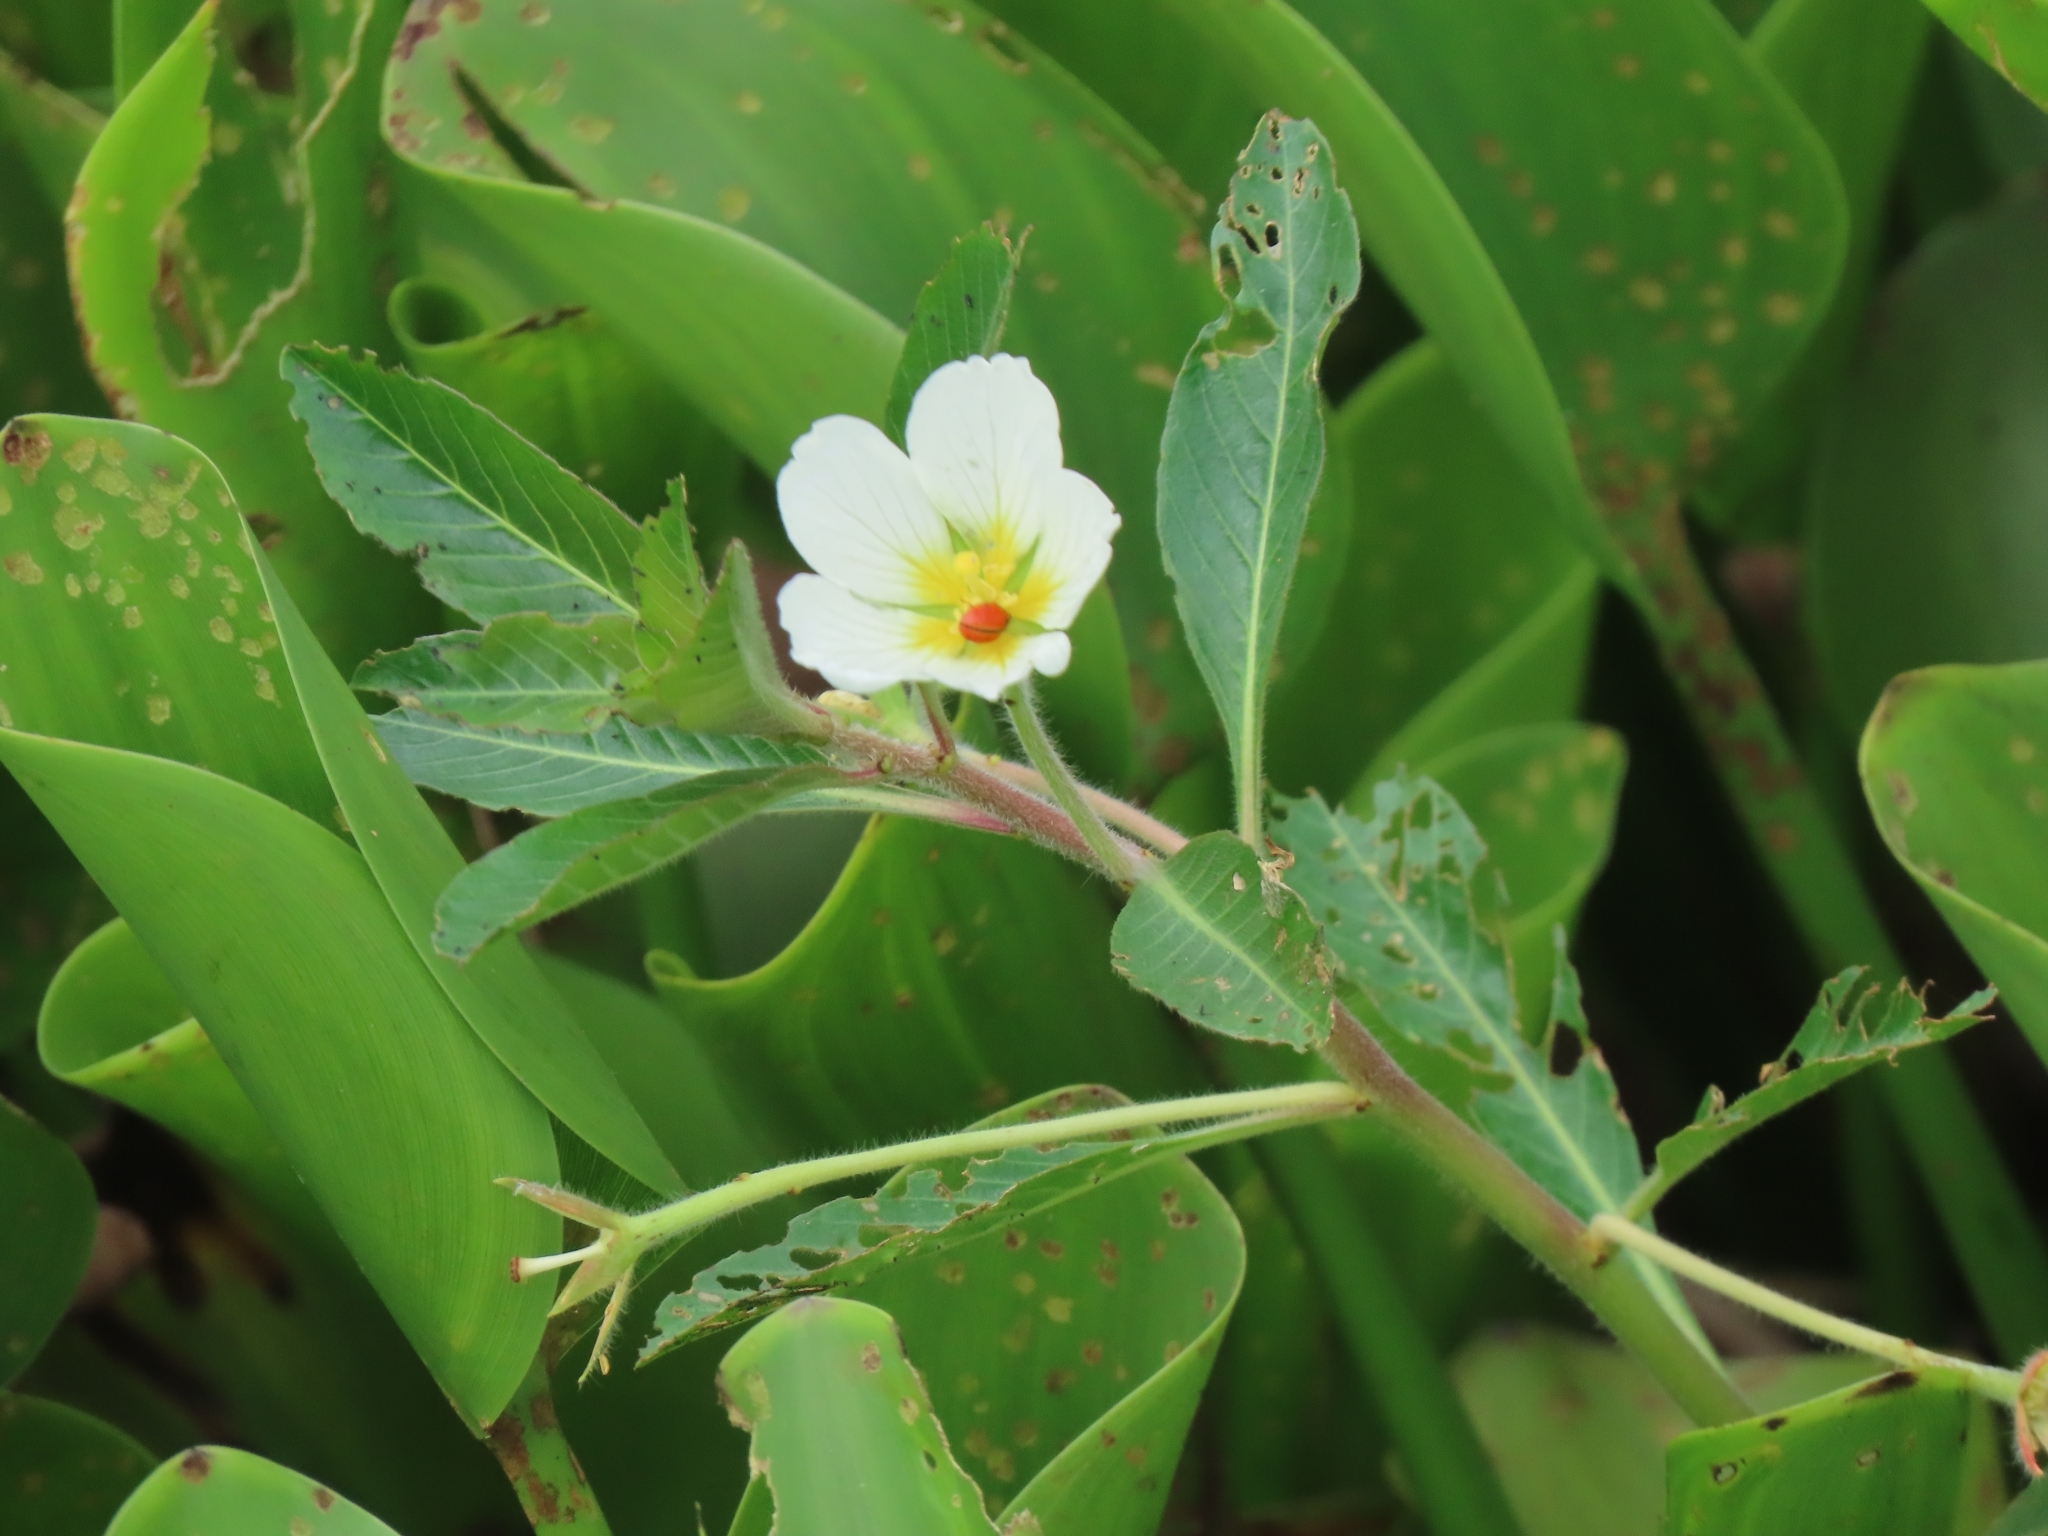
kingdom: Plantae
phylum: Tracheophyta
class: Magnoliopsida
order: Myrtales
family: Onagraceae
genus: Ludwigia
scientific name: Ludwigia adscendens
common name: Creeping water primrose
